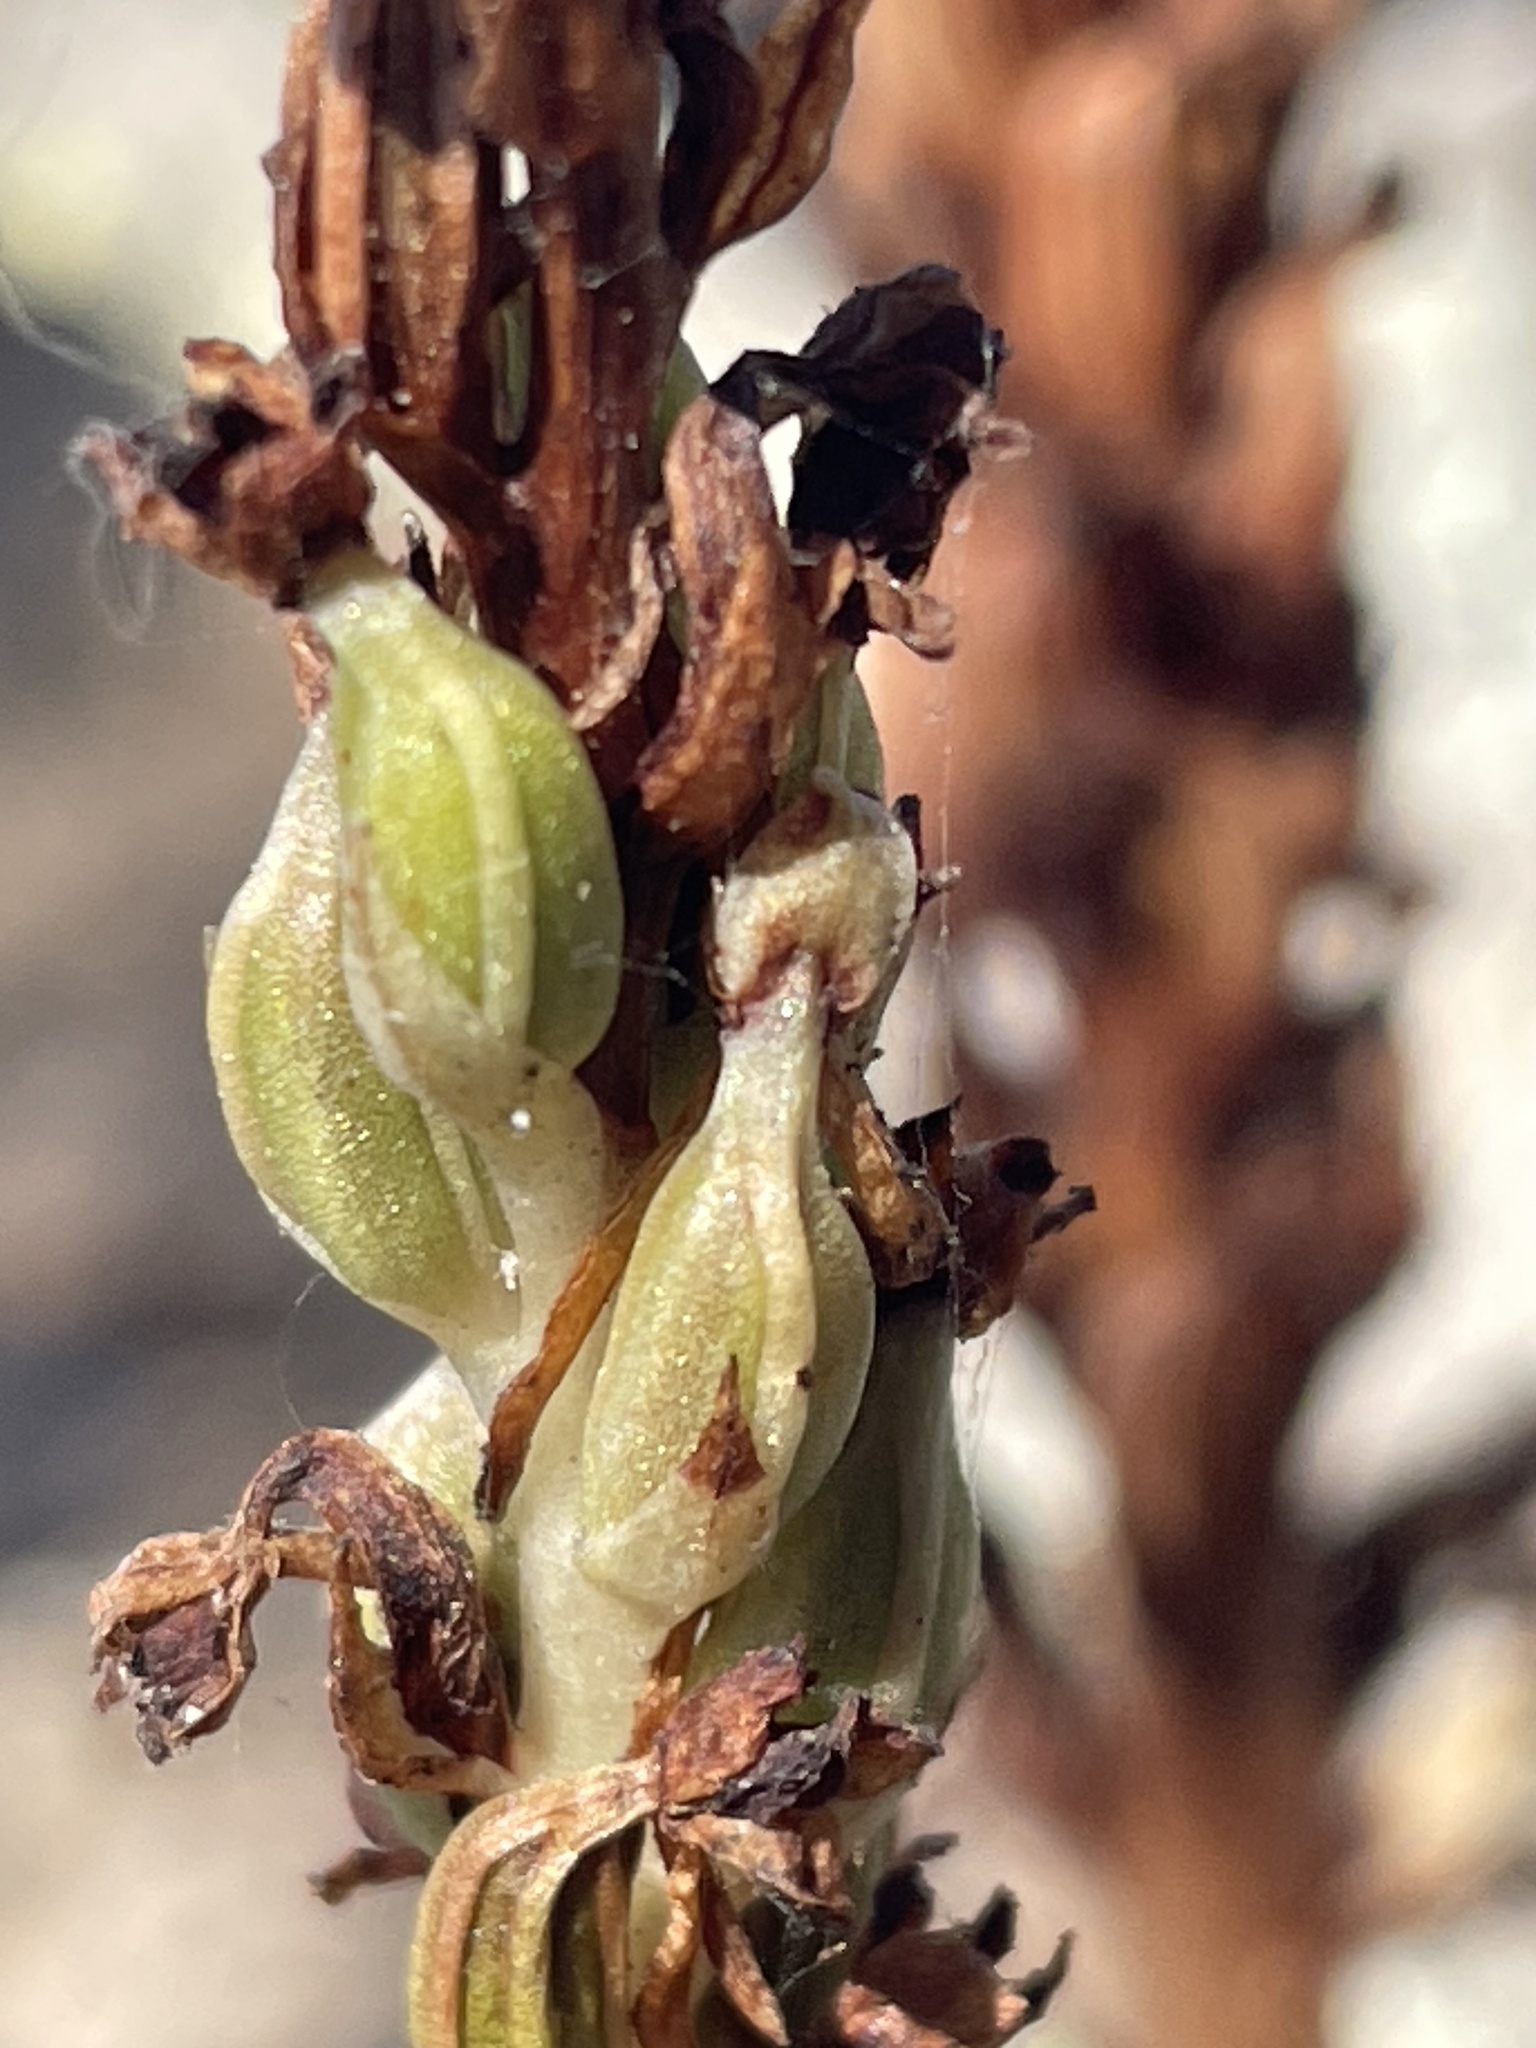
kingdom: Plantae
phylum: Tracheophyta
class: Liliopsida
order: Asparagales
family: Orchidaceae
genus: Platanthera
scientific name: Platanthera michaelii
